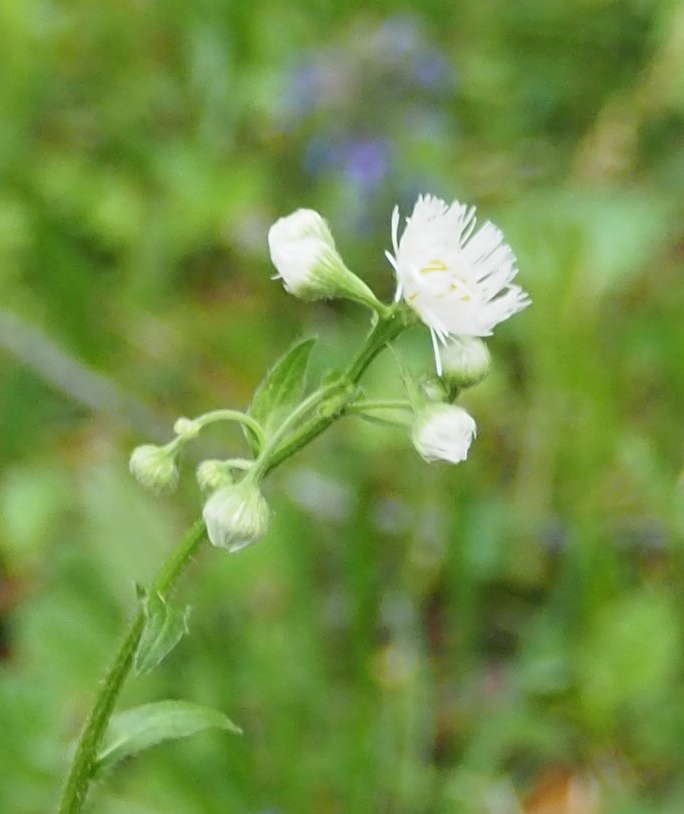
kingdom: Plantae
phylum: Tracheophyta
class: Magnoliopsida
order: Asterales
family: Asteraceae
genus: Erigeron
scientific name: Erigeron philadelphicus
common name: Robin's-plantain
